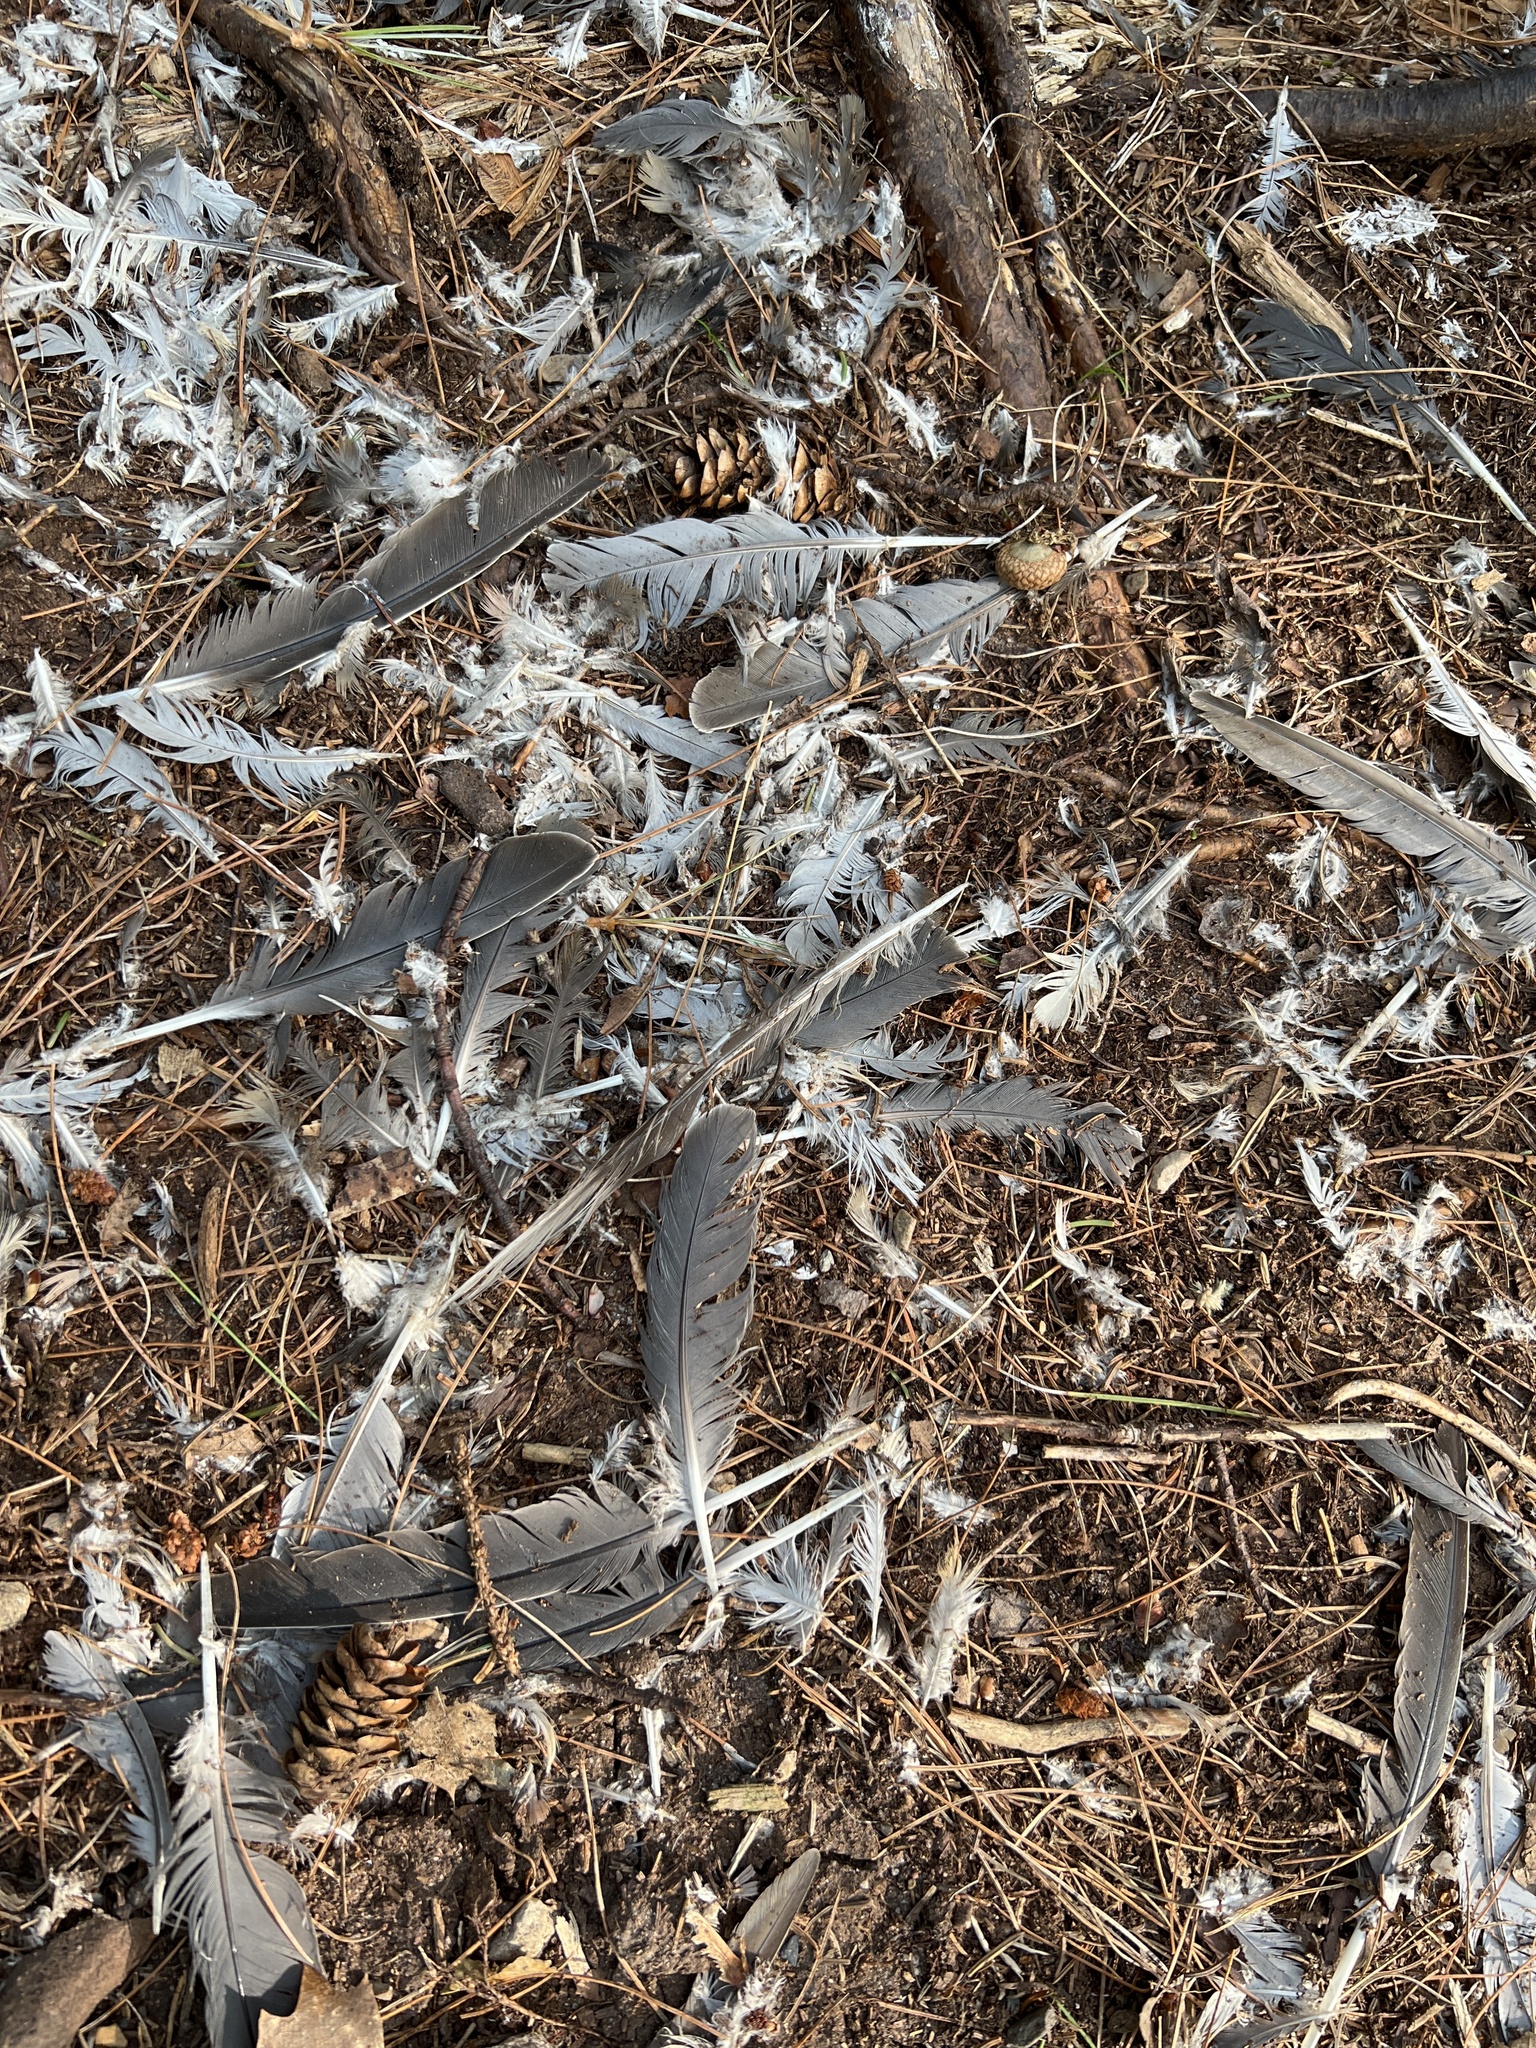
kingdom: Animalia
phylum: Chordata
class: Aves
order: Columbiformes
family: Columbidae
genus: Zenaida
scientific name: Zenaida macroura
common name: Mourning dove
